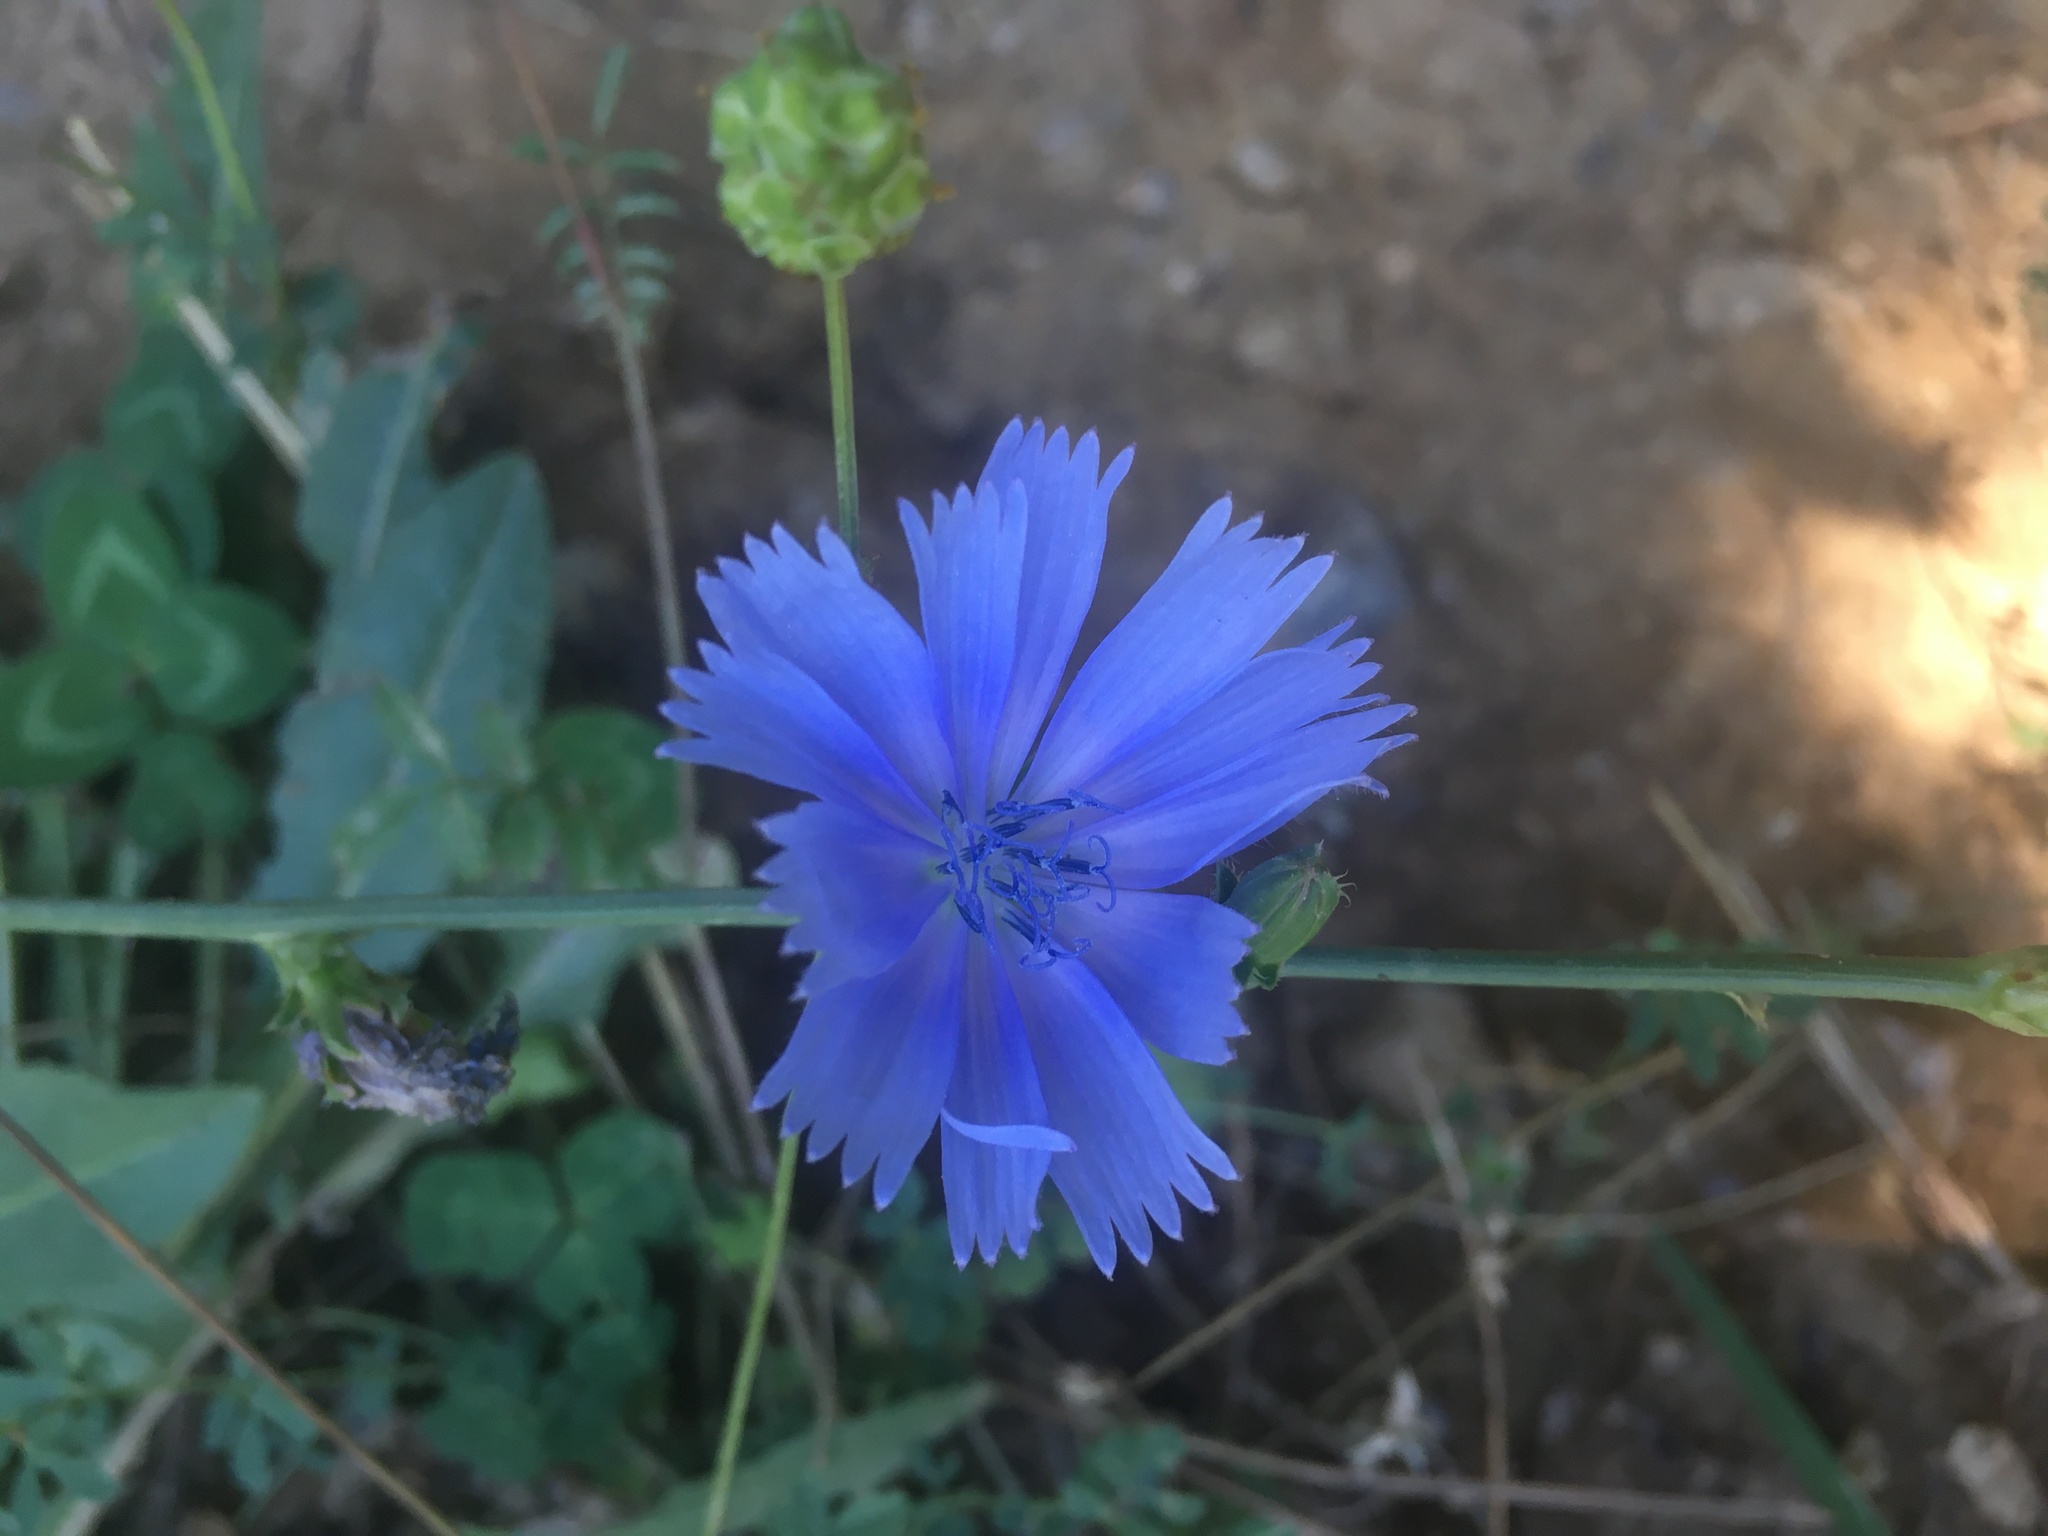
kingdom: Plantae
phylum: Tracheophyta
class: Magnoliopsida
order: Asterales
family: Asteraceae
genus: Cichorium
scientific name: Cichorium intybus
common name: Chicory
